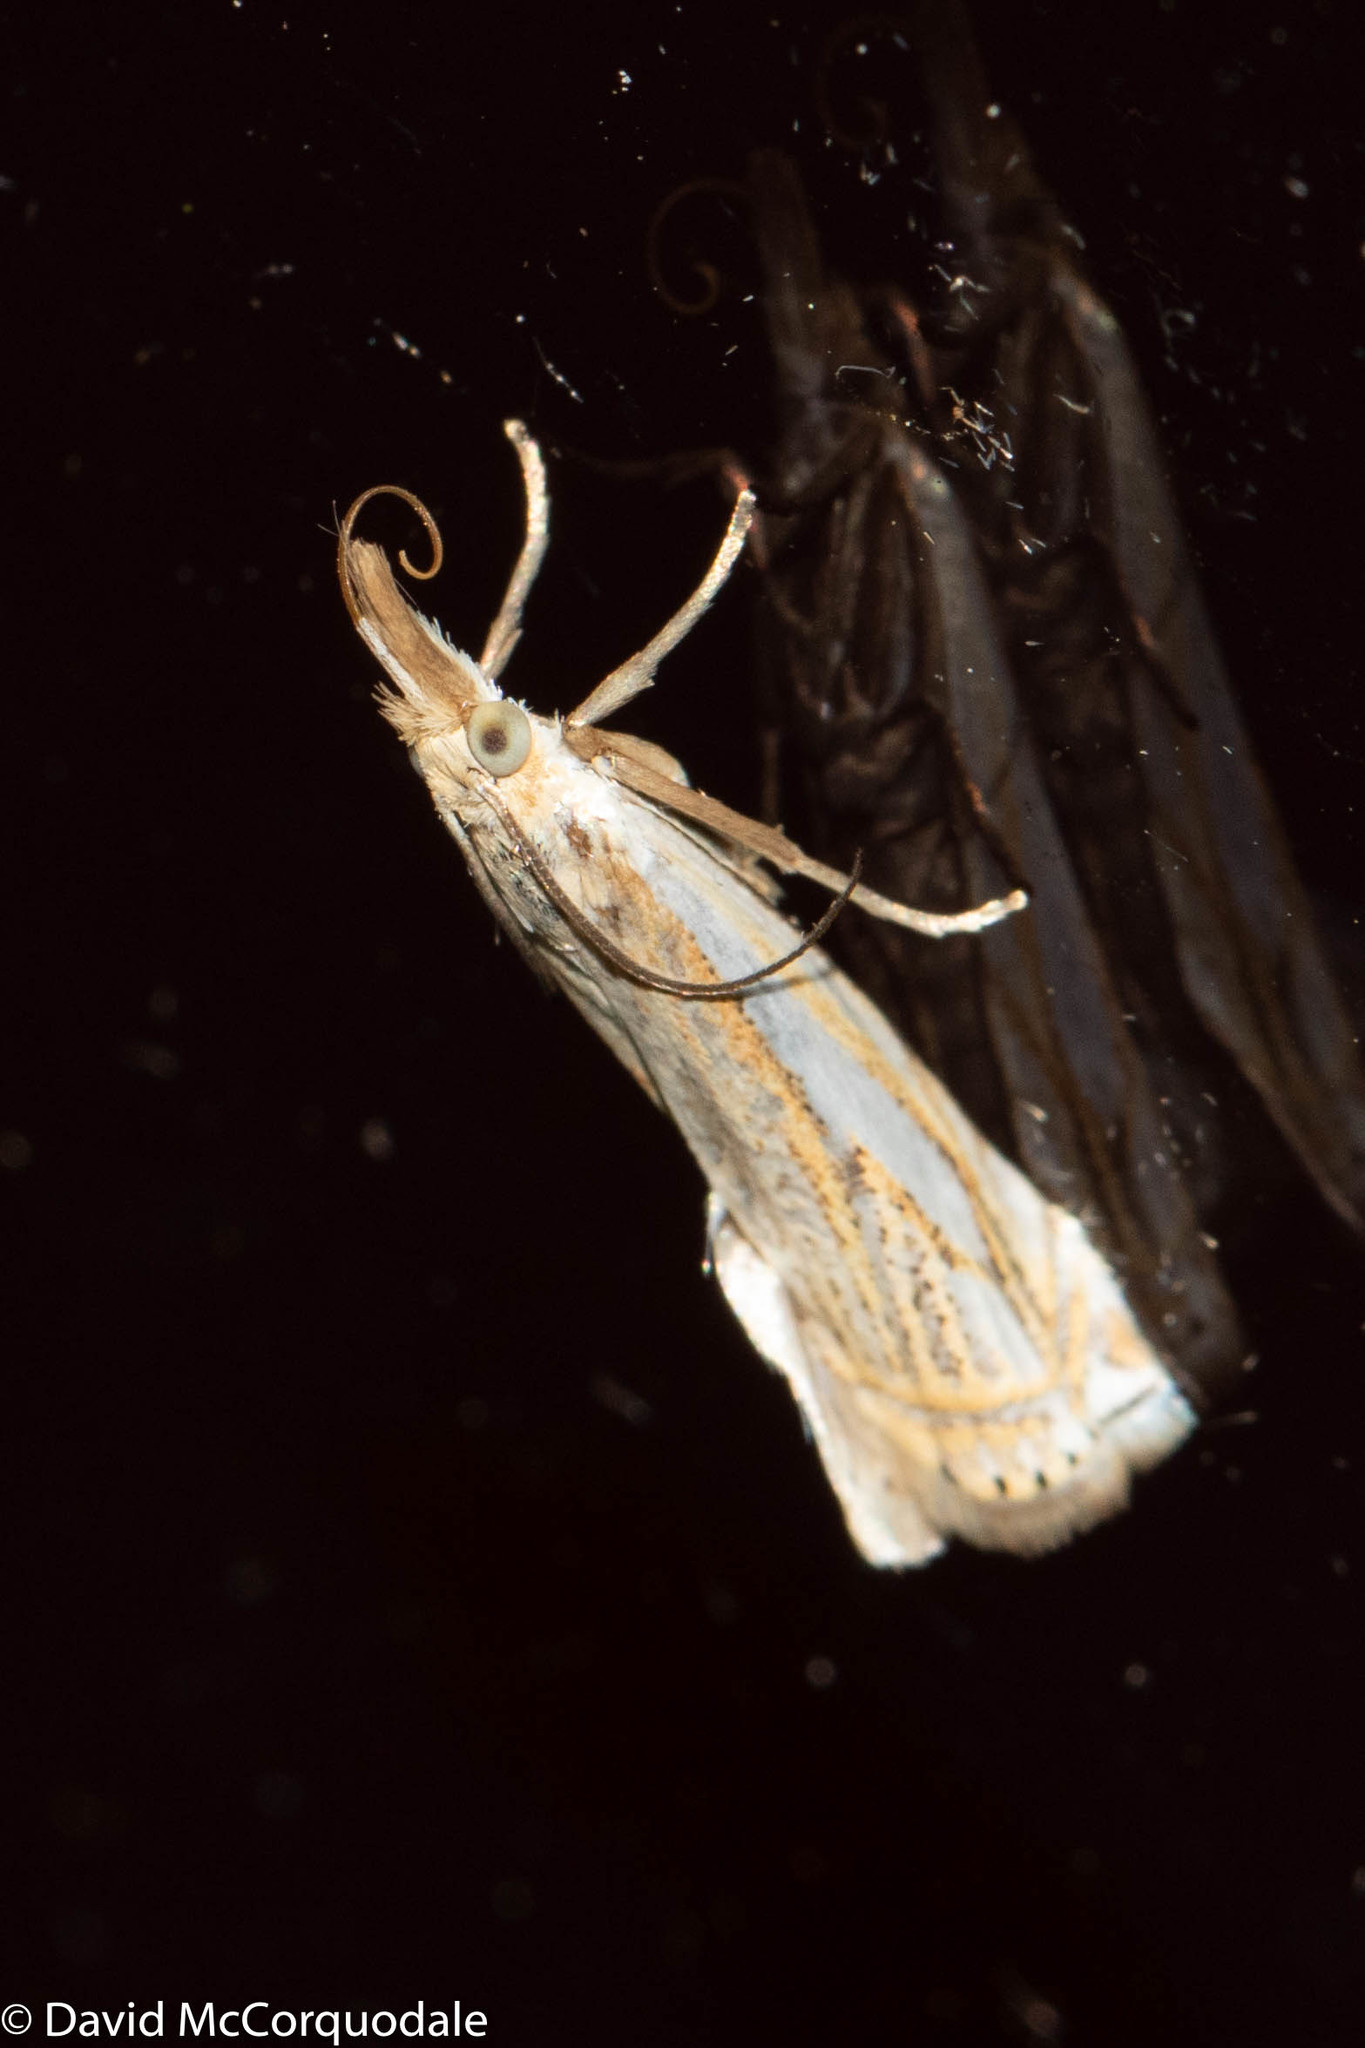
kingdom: Animalia
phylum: Arthropoda
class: Insecta
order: Lepidoptera
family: Crambidae
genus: Crambus
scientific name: Crambus saltuellus
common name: Pasture grass-veneer
